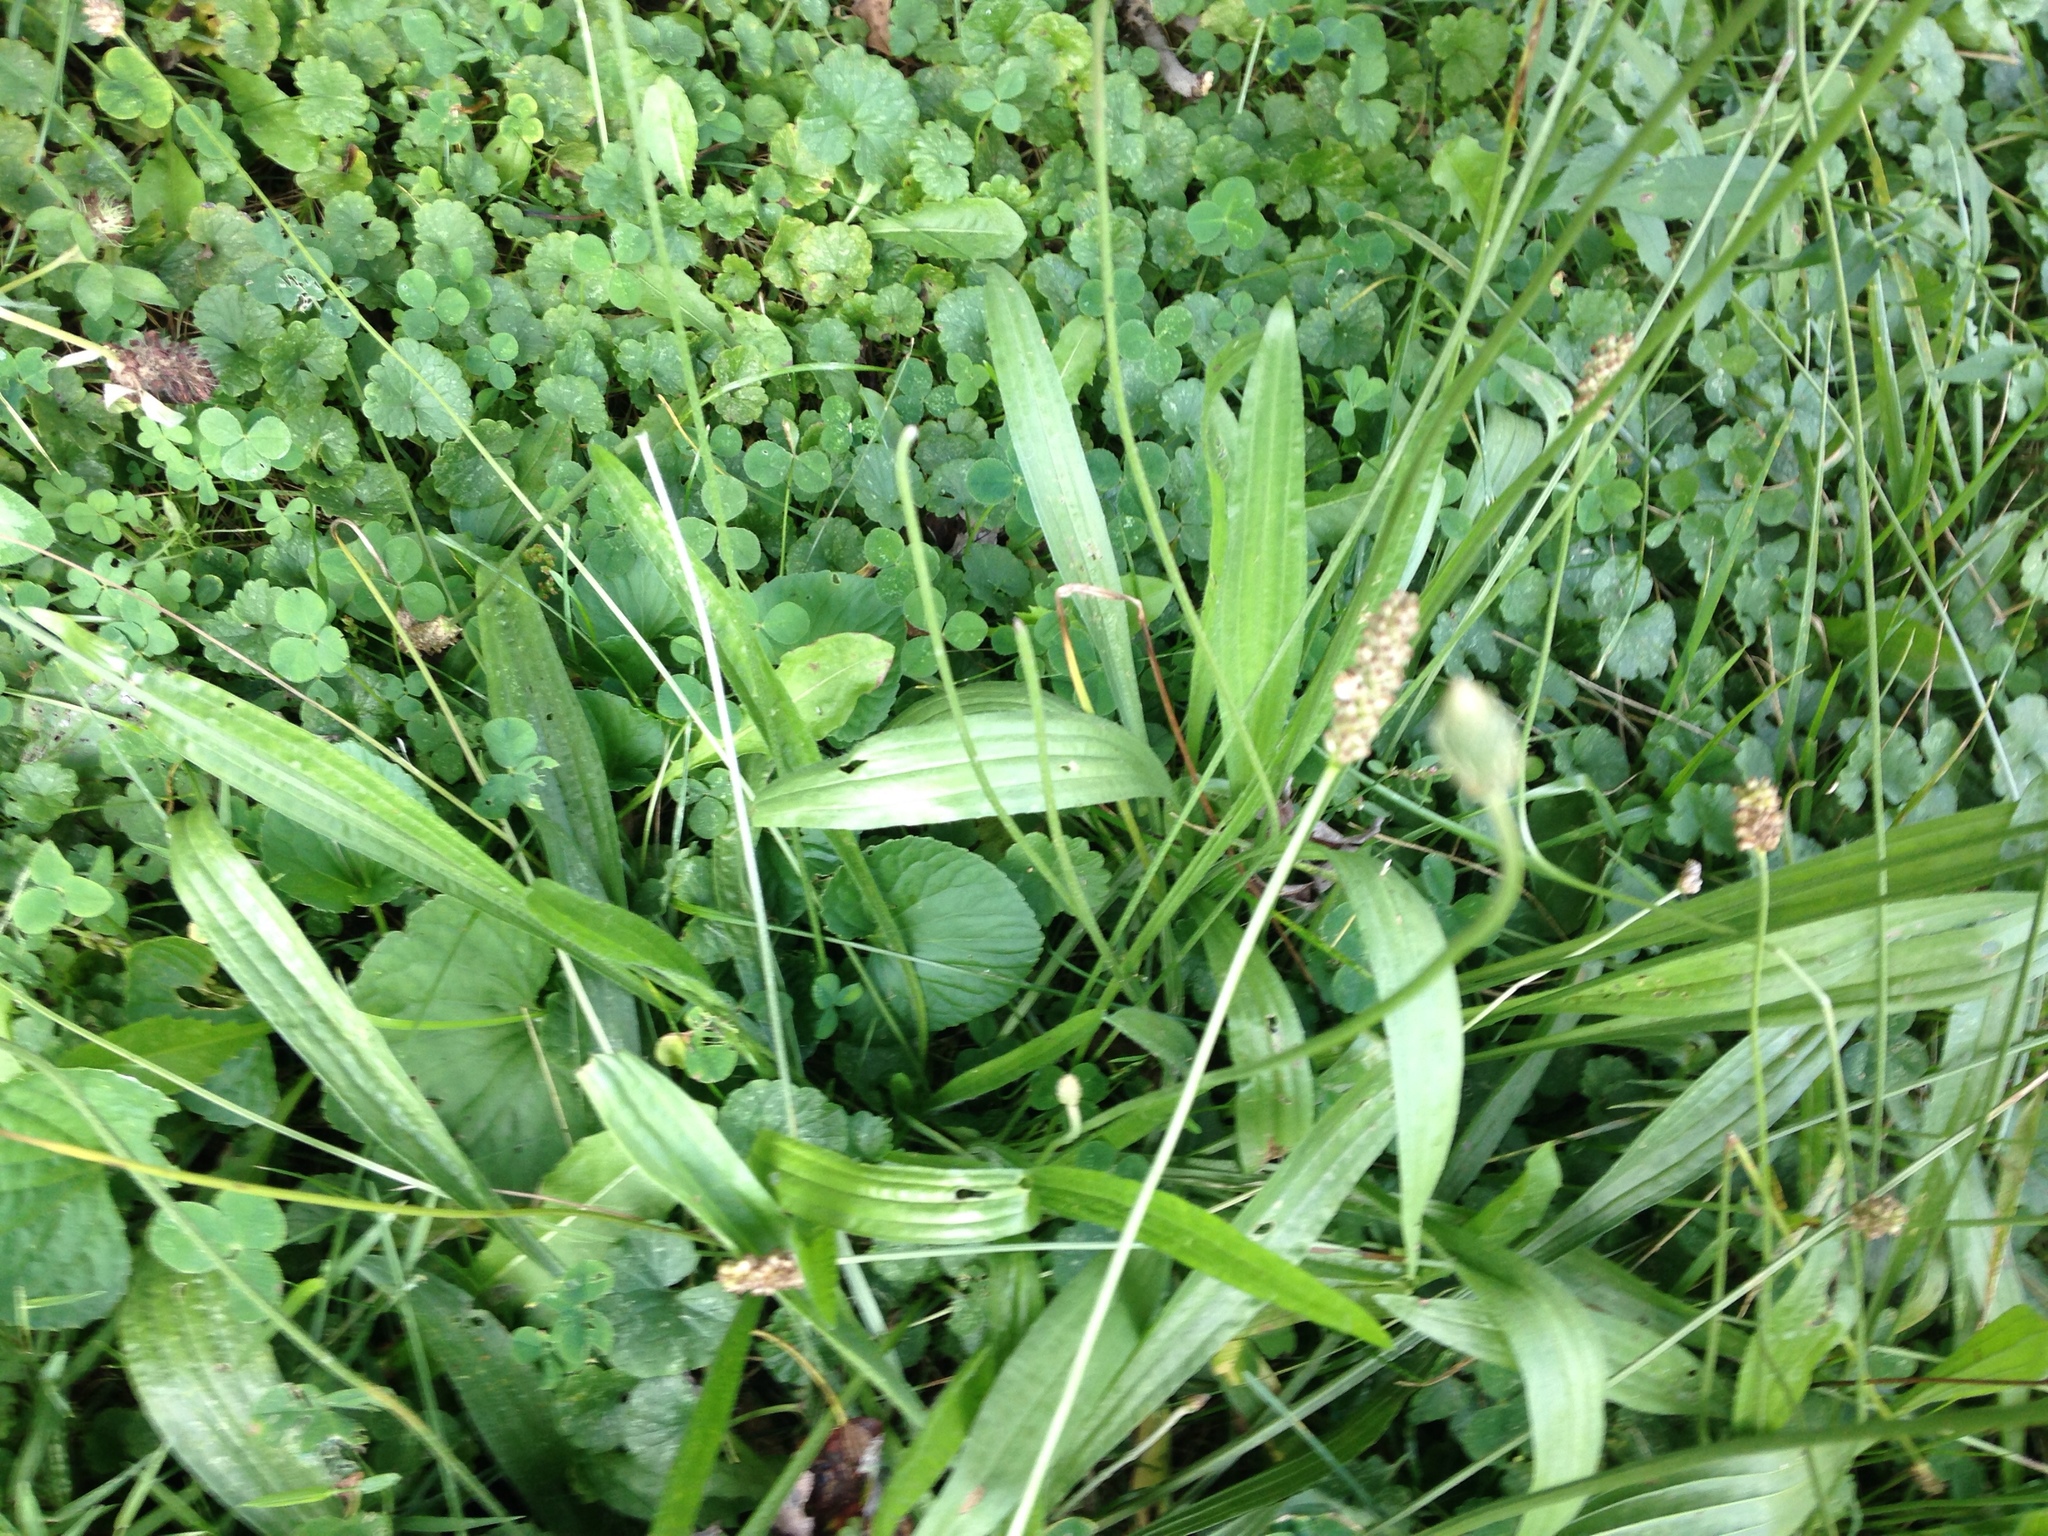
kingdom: Plantae
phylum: Tracheophyta
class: Magnoliopsida
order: Lamiales
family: Plantaginaceae
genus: Plantago
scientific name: Plantago lanceolata
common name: Ribwort plantain
